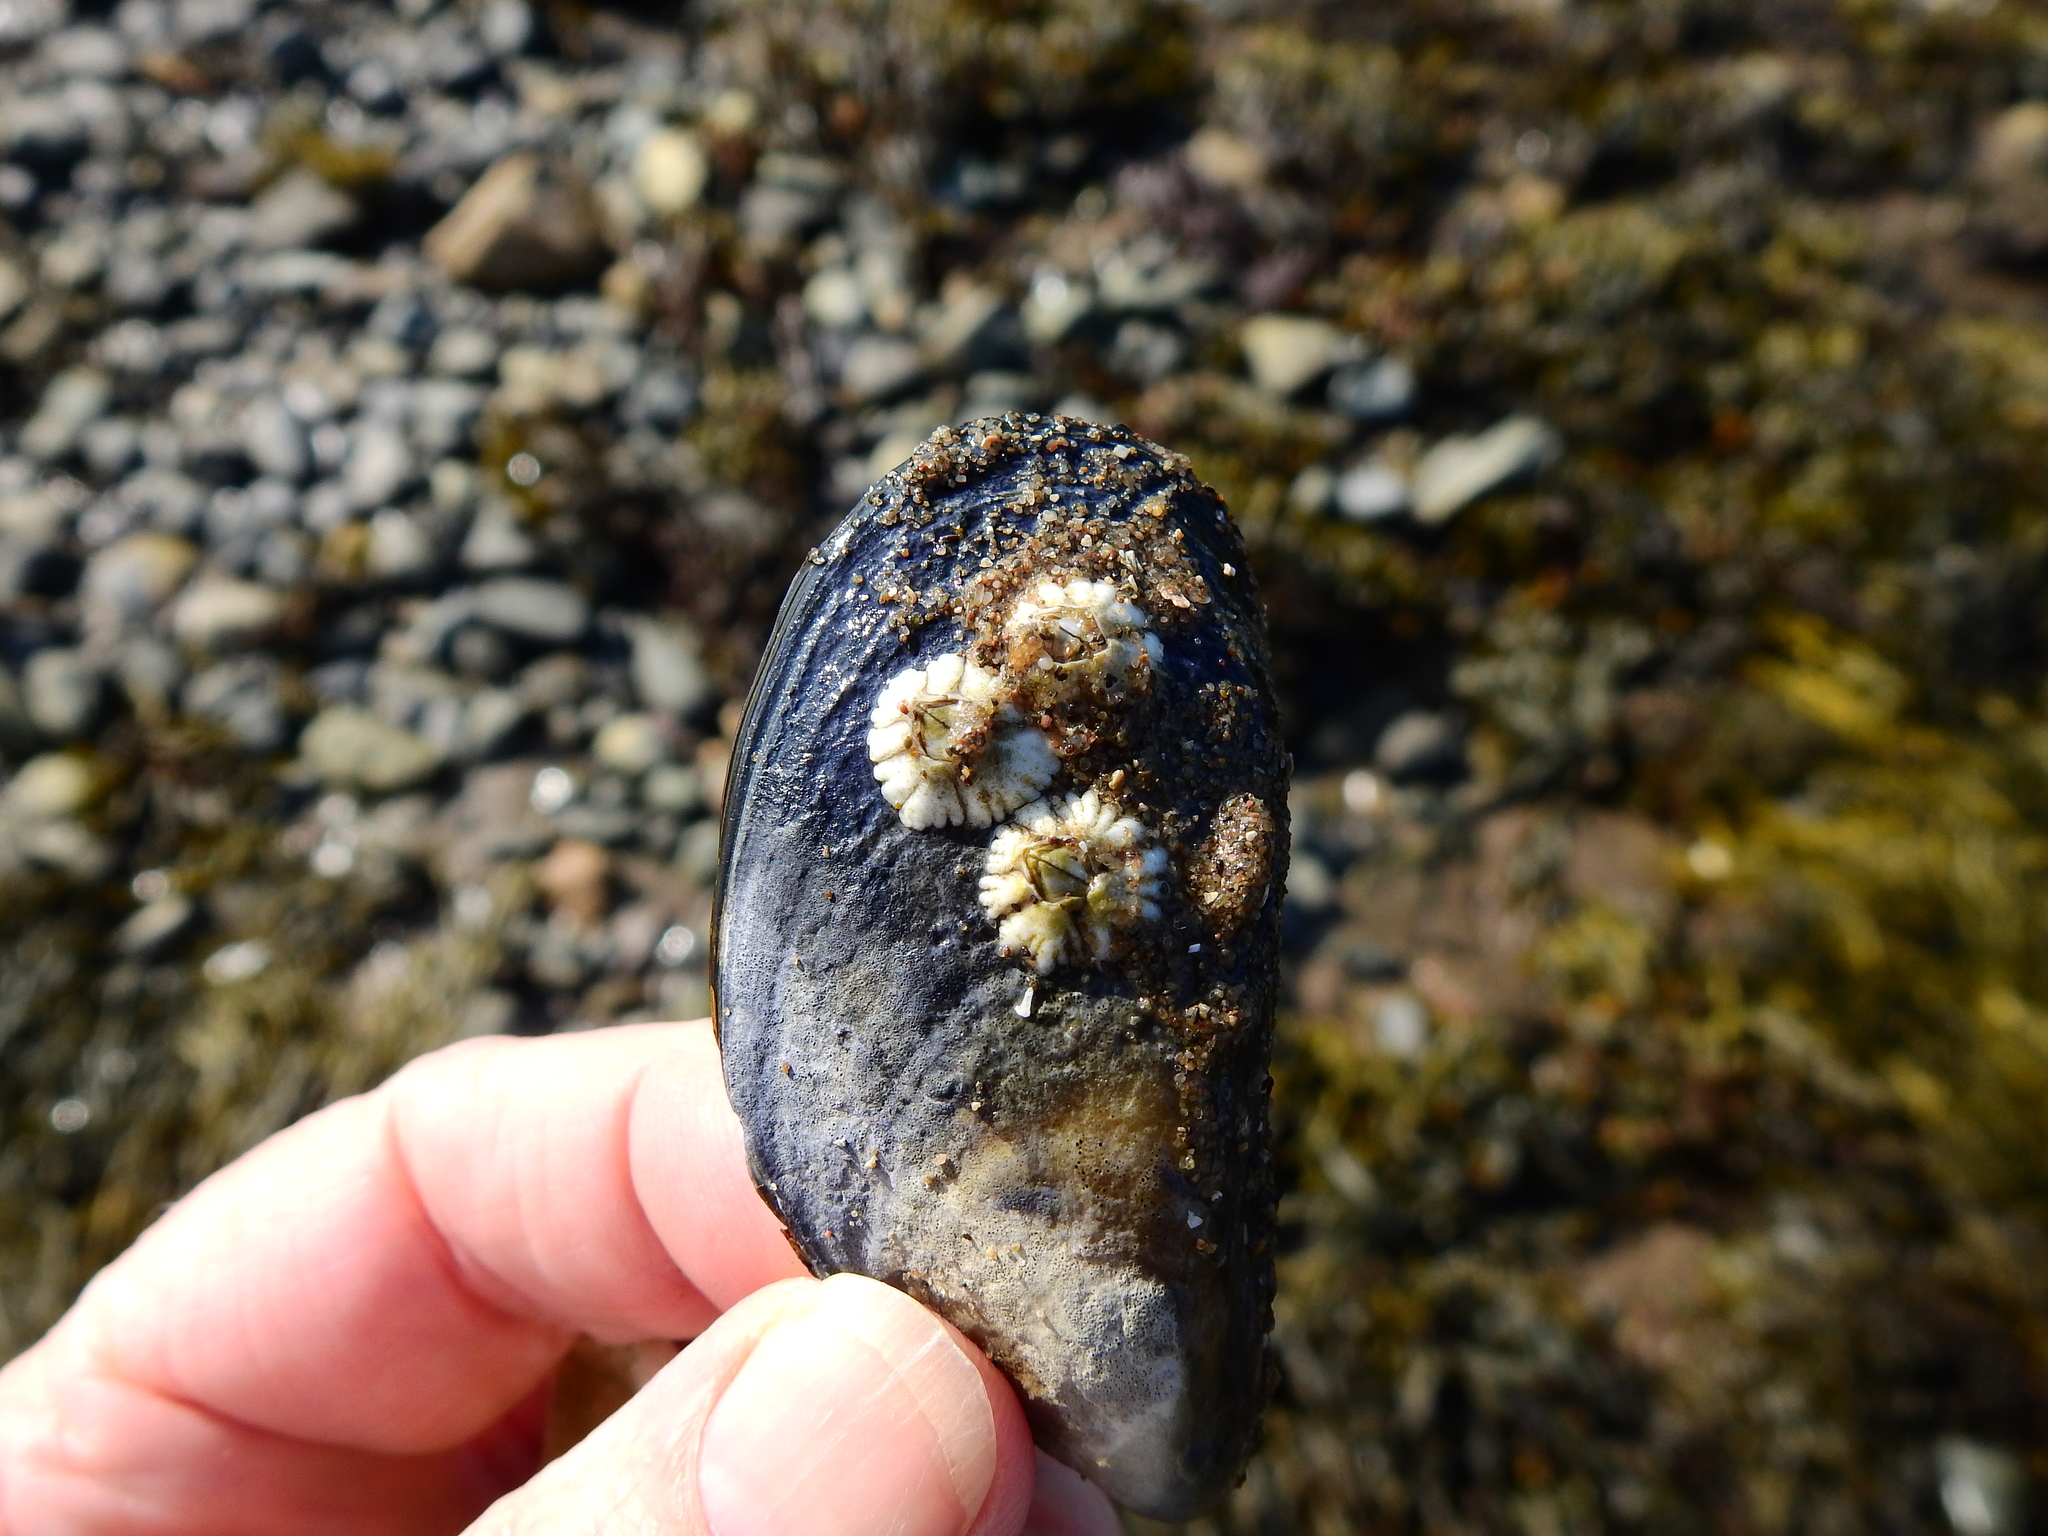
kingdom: Animalia
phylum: Arthropoda
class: Maxillopoda
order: Sessilia
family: Archaeobalanidae
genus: Semibalanus
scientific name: Semibalanus balanoides
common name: Acorn barnacle
